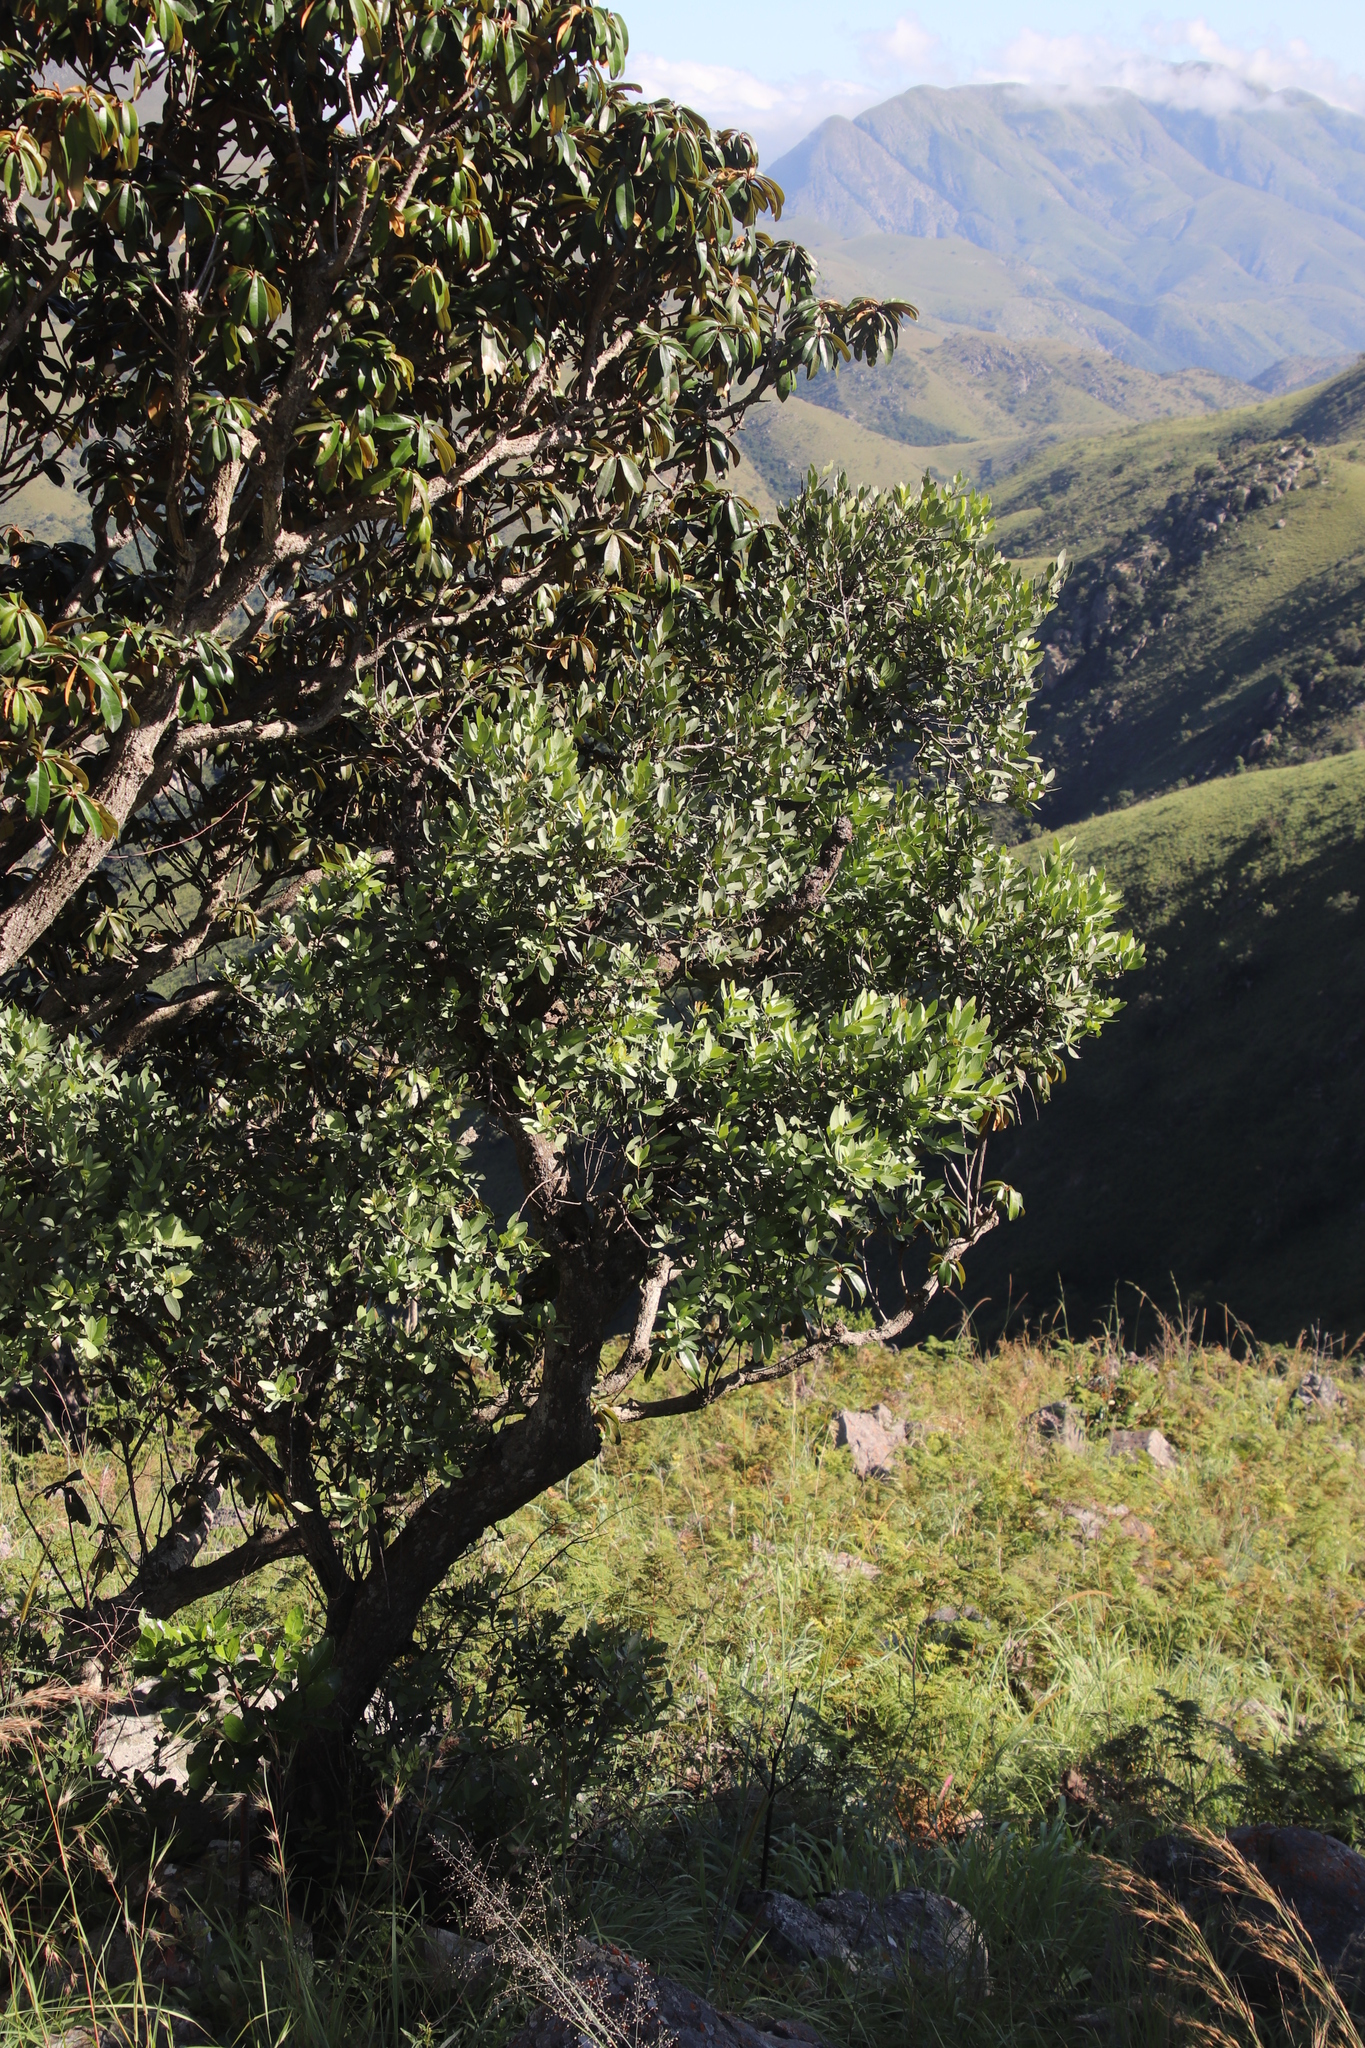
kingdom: Plantae
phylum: Tracheophyta
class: Magnoliopsida
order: Celastrales
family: Celastraceae
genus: Pterocelastrus
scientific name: Pterocelastrus echinatus
